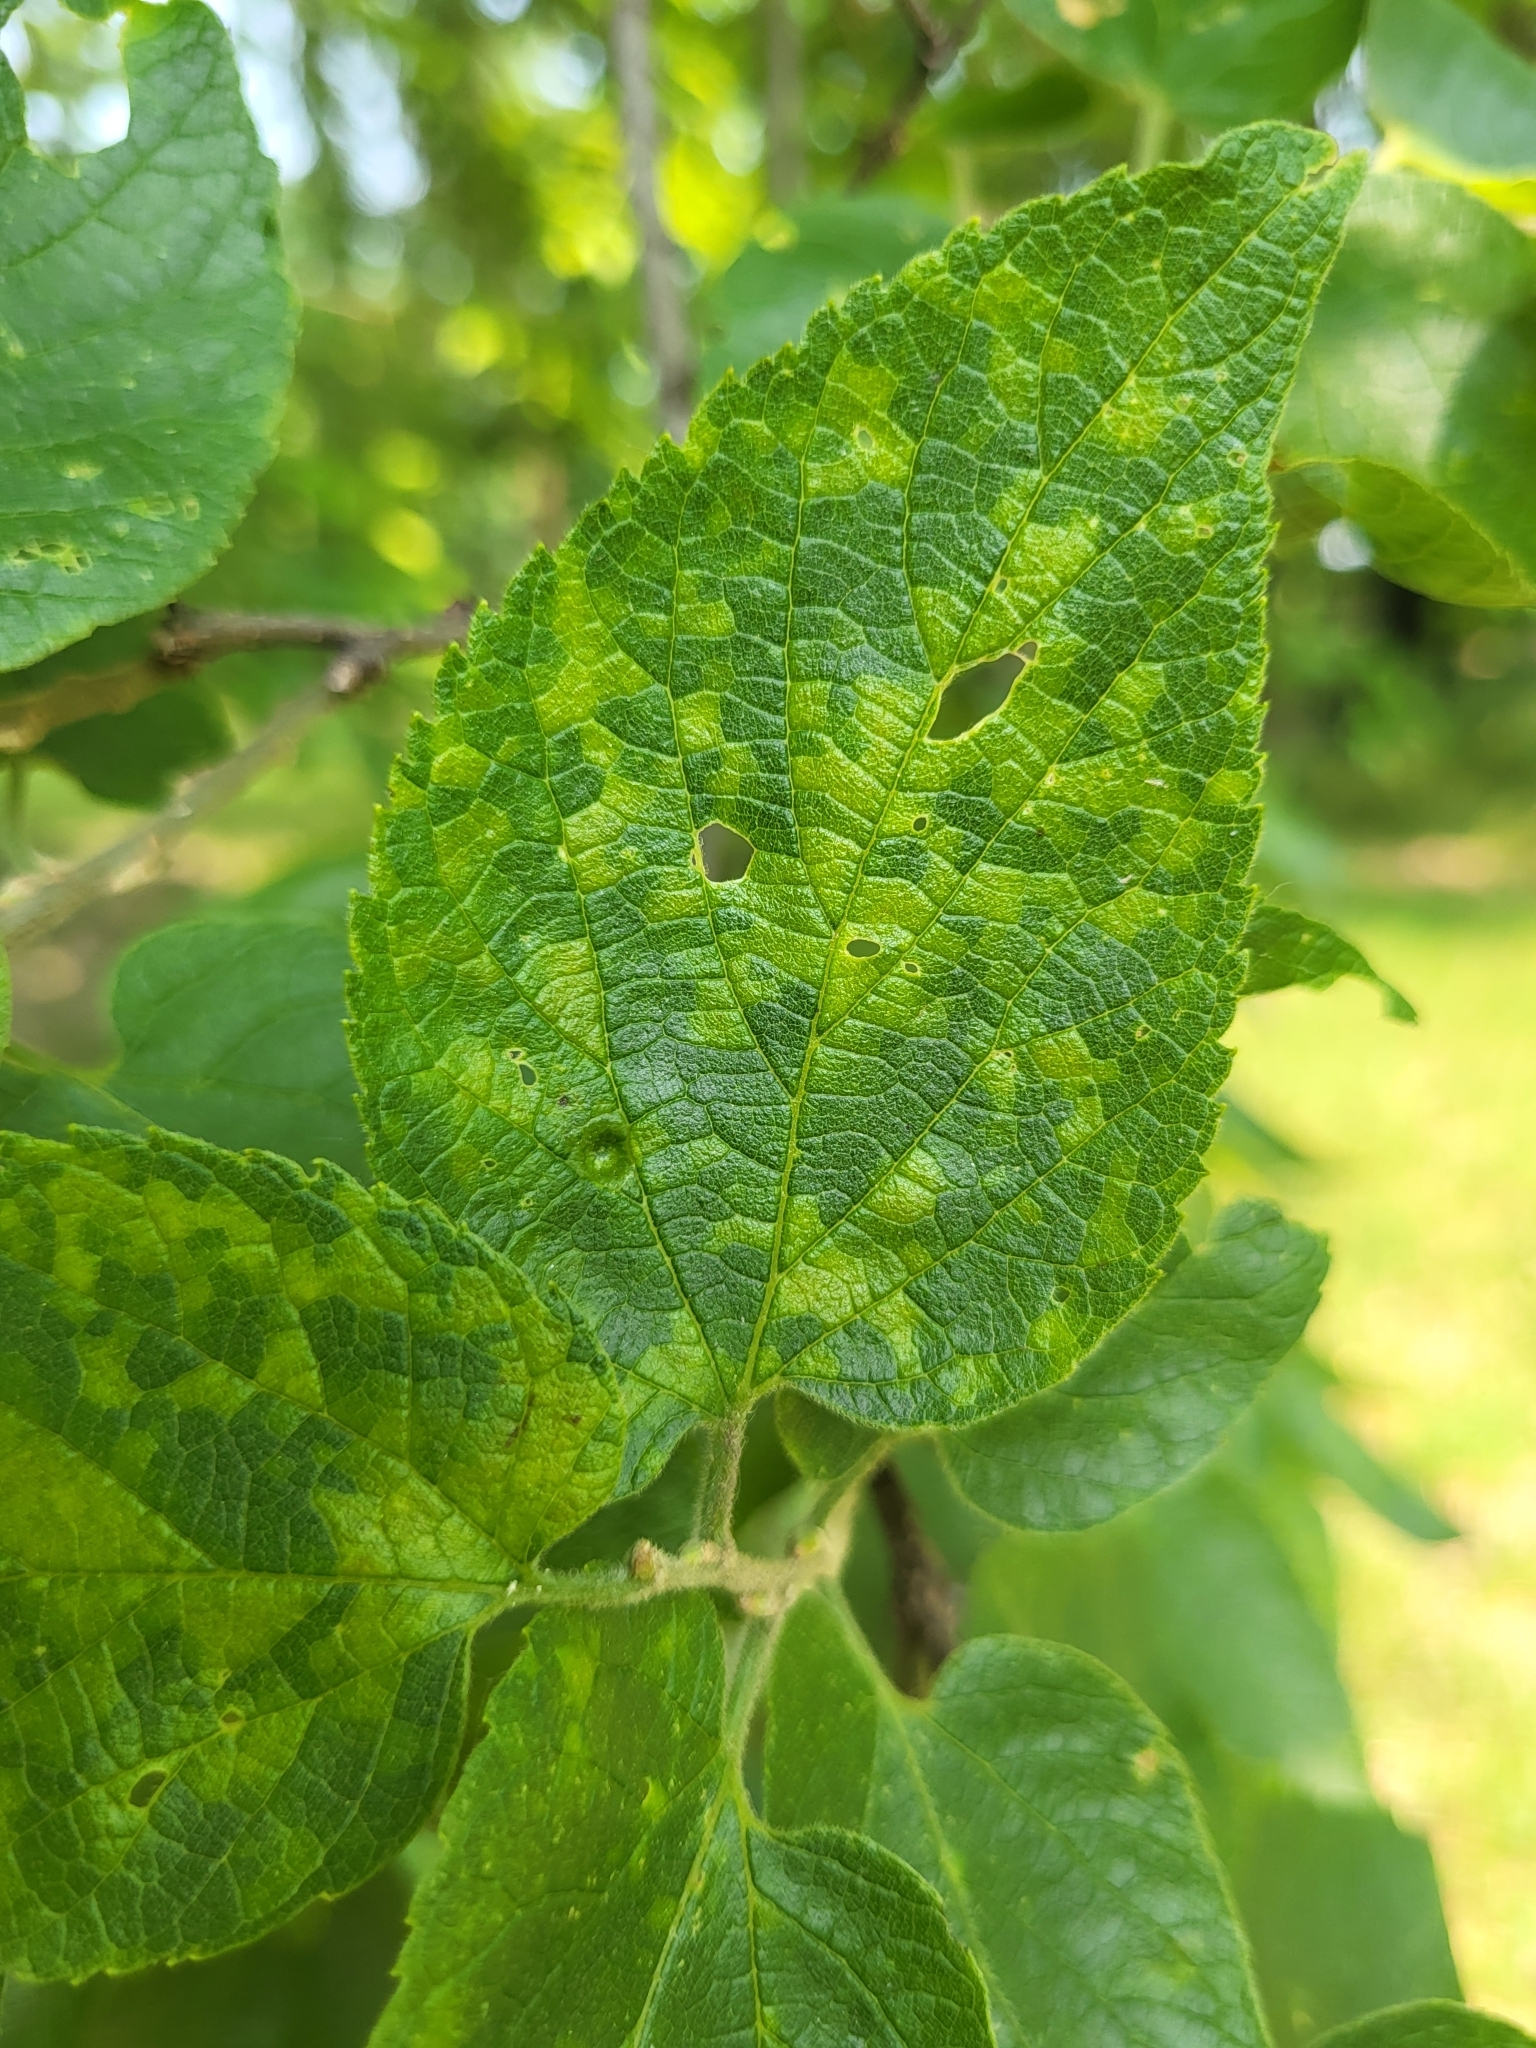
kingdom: Viruses
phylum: Kitrinoviricota
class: Alsuviricetes
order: Martellivirales
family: Closteroviridae
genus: Ampelovirus
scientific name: Ampelovirus
